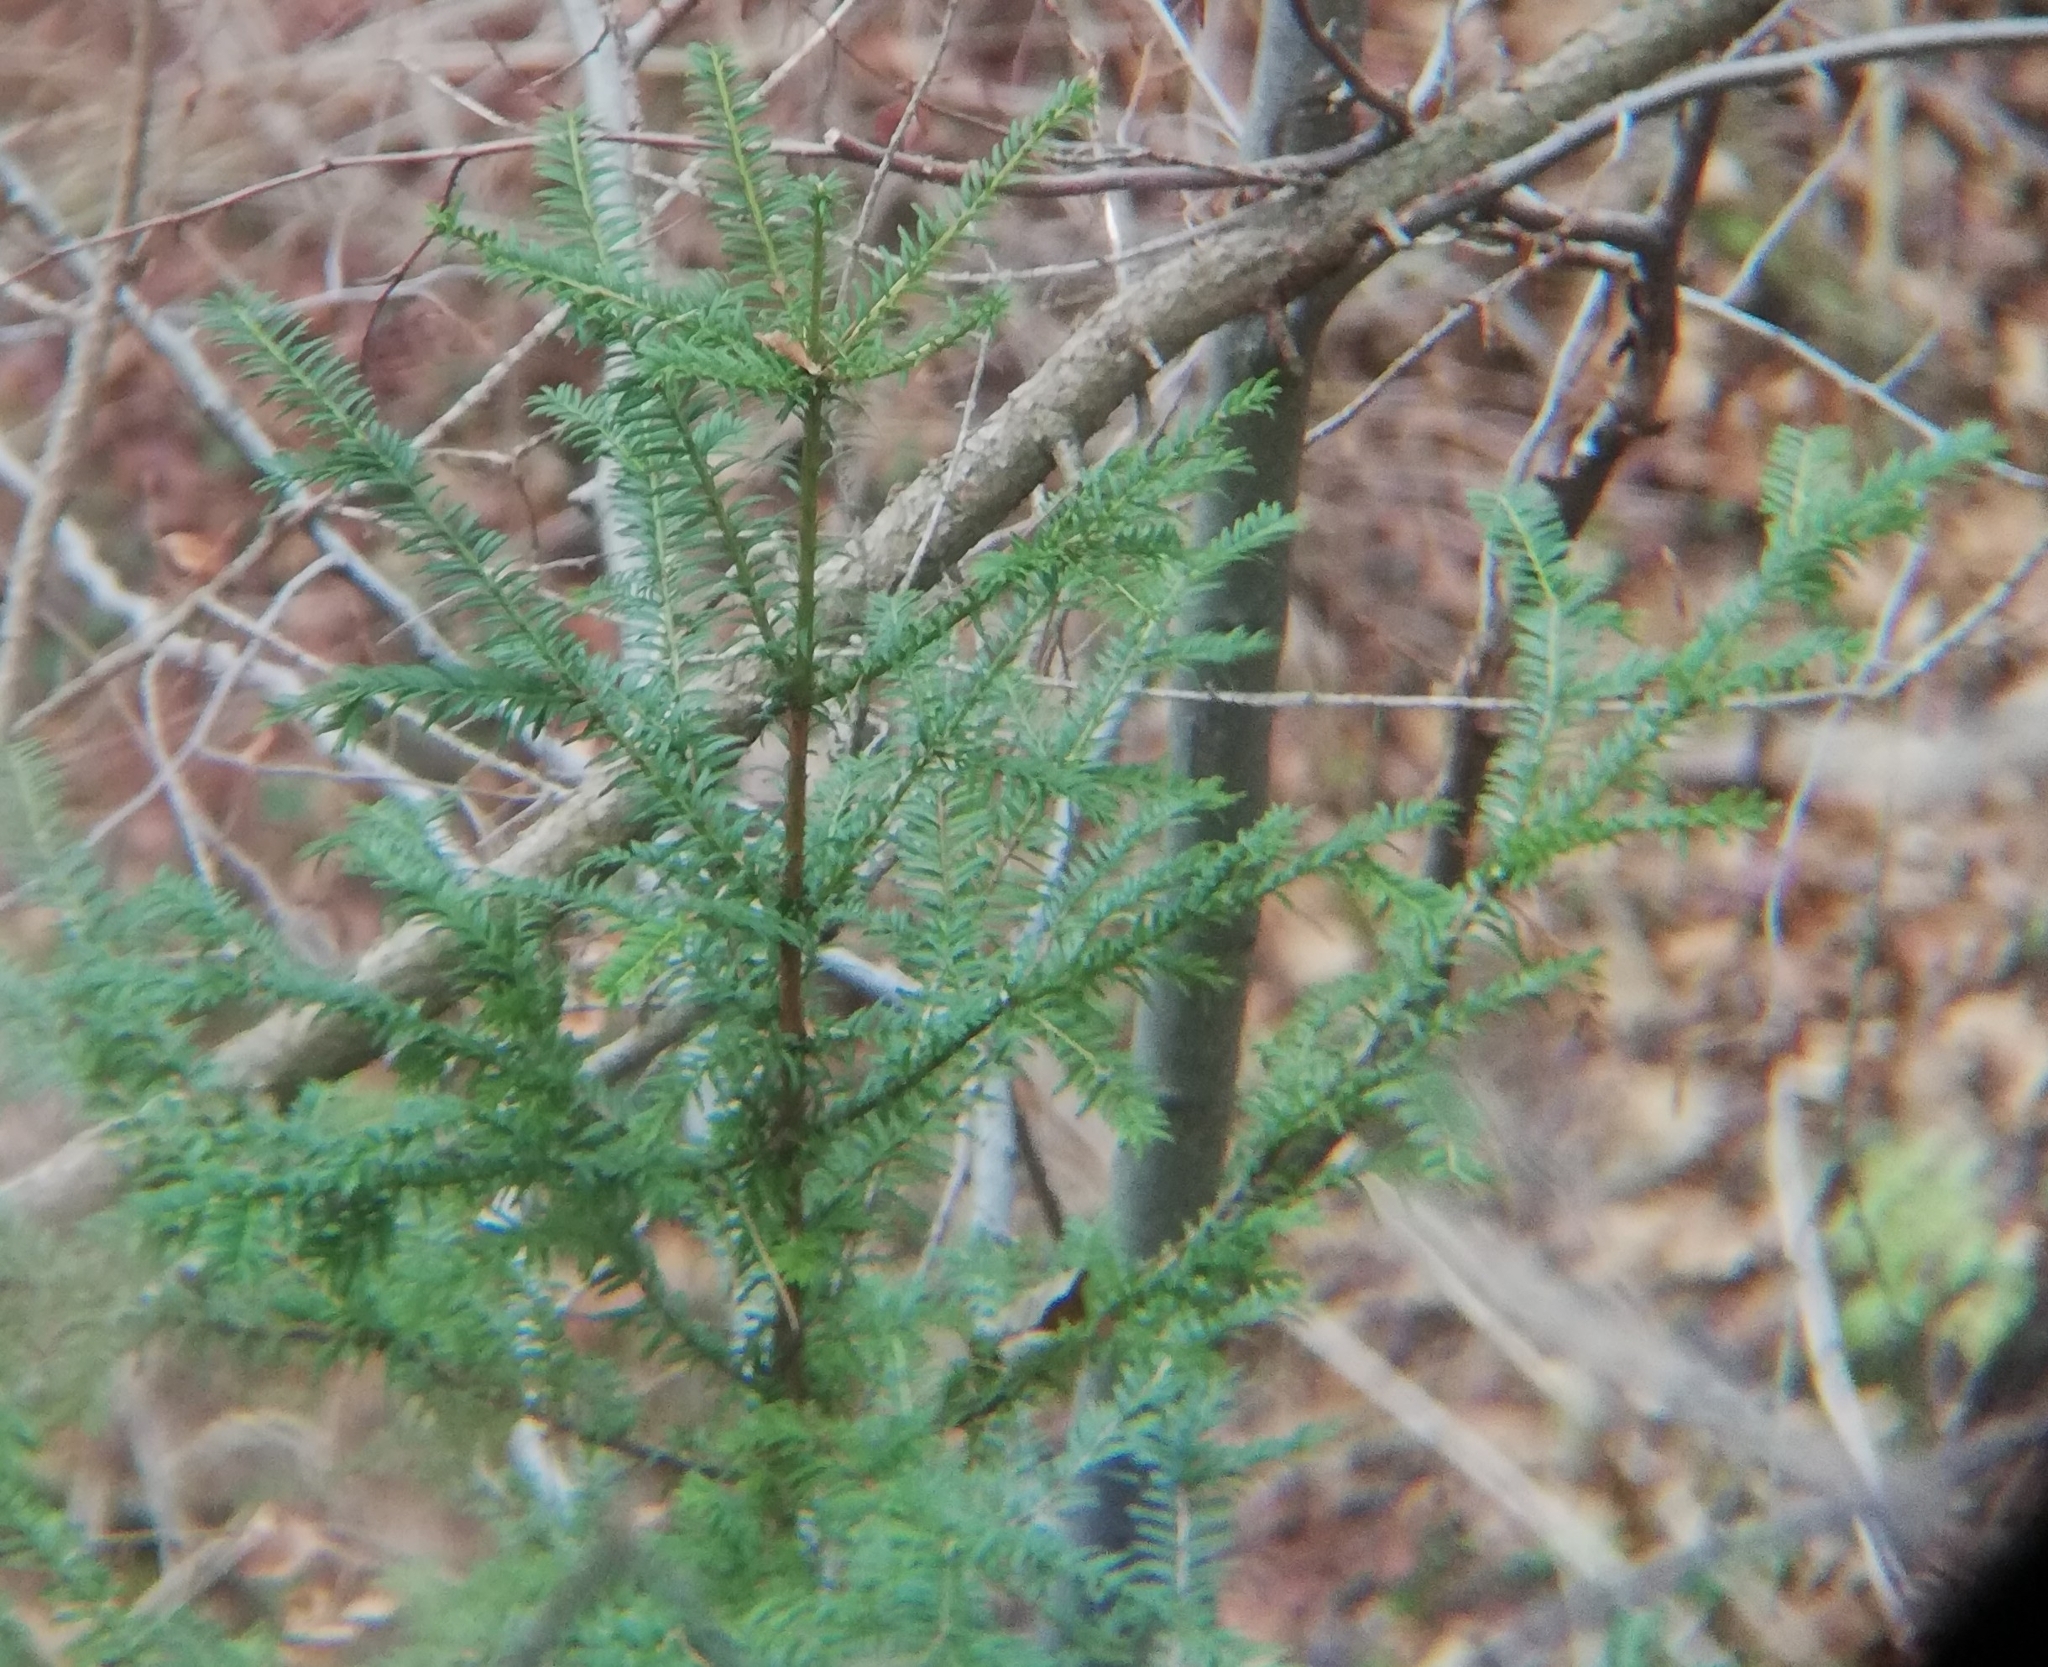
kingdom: Plantae
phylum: Tracheophyta
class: Pinopsida
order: Pinales
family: Taxaceae
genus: Taxus
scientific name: Taxus baccata
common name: Yew
